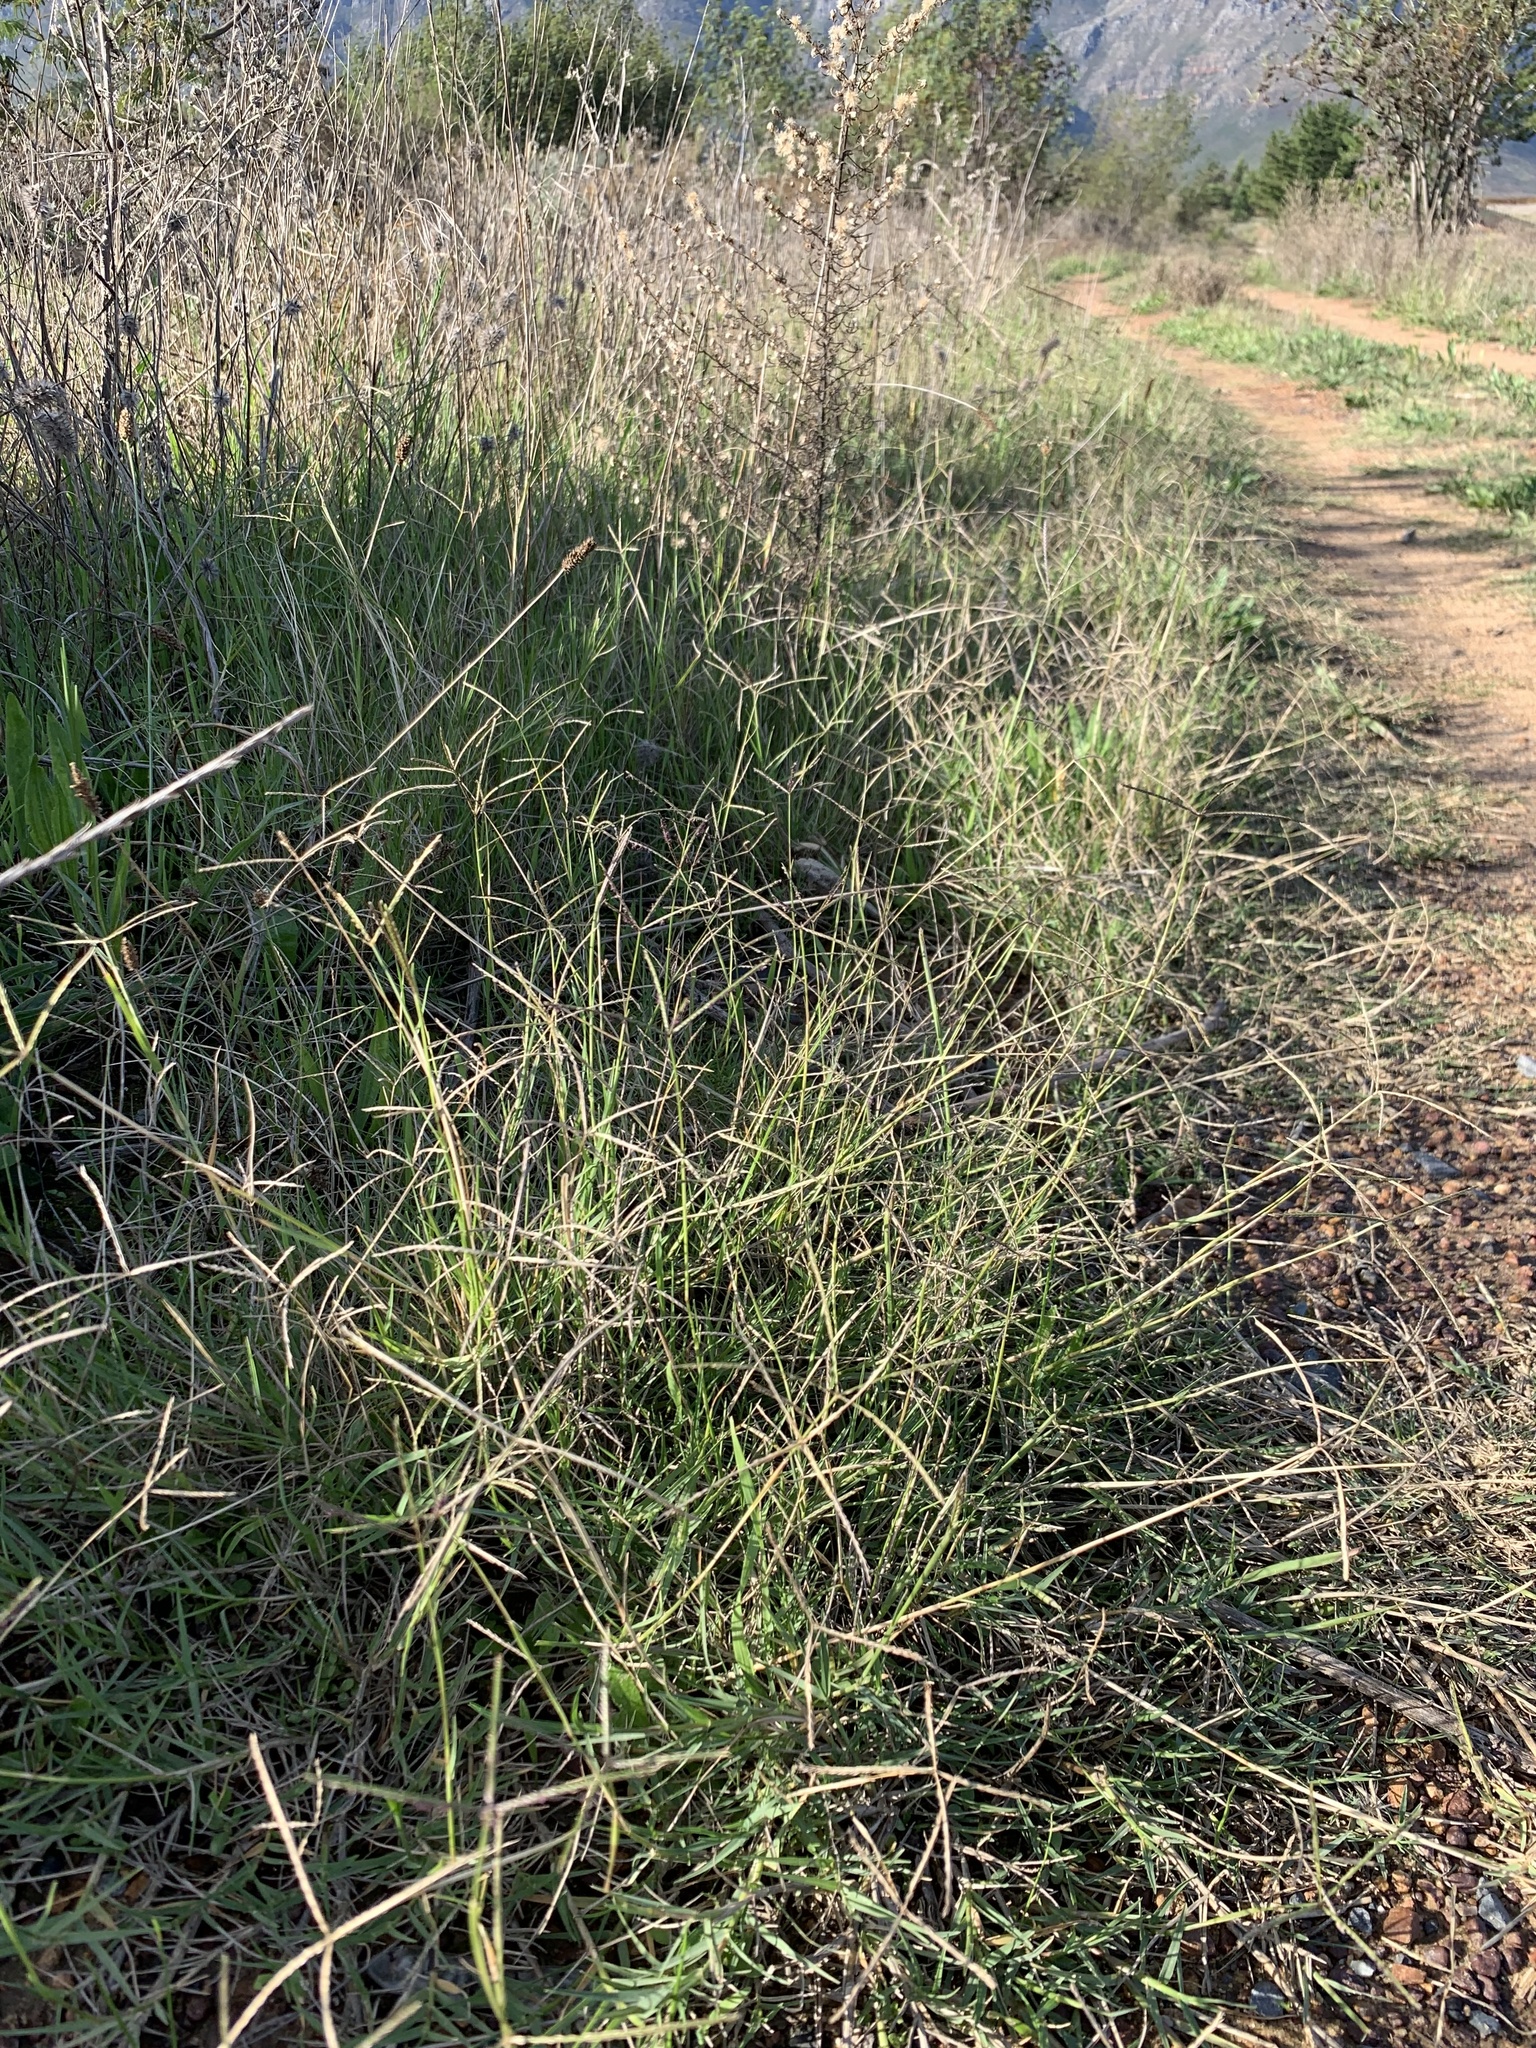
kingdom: Plantae
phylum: Tracheophyta
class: Liliopsida
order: Poales
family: Poaceae
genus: Cynodon
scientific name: Cynodon dactylon
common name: Bermuda grass
